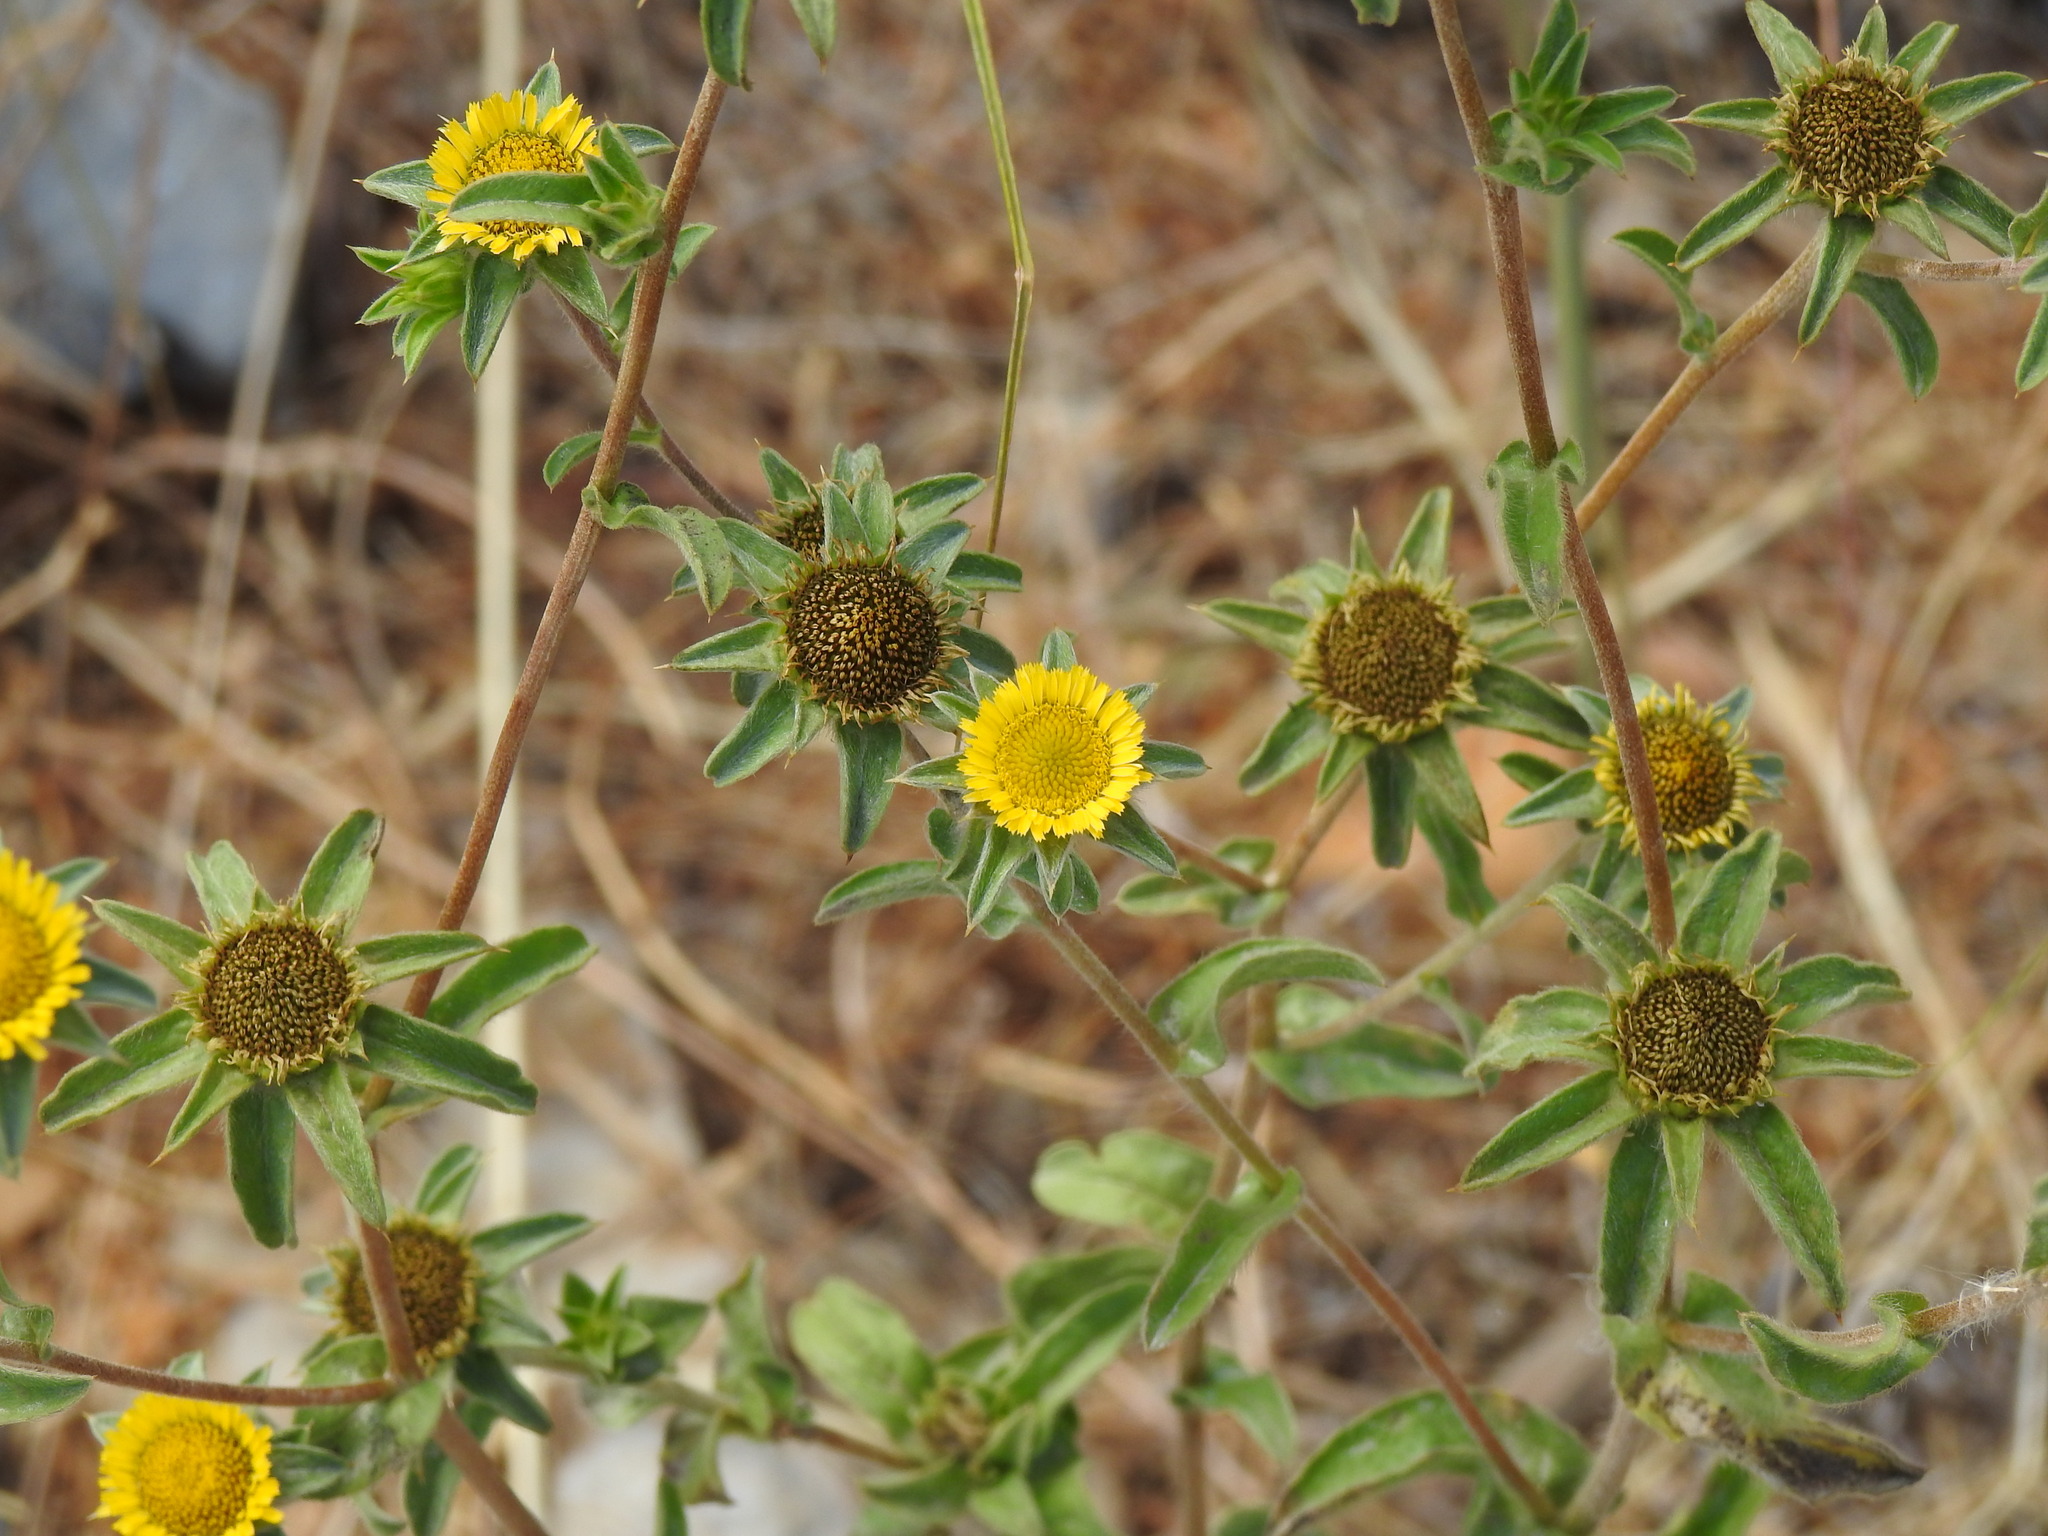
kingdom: Plantae
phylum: Tracheophyta
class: Magnoliopsida
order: Asterales
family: Asteraceae
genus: Pallenis
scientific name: Pallenis spinosa
